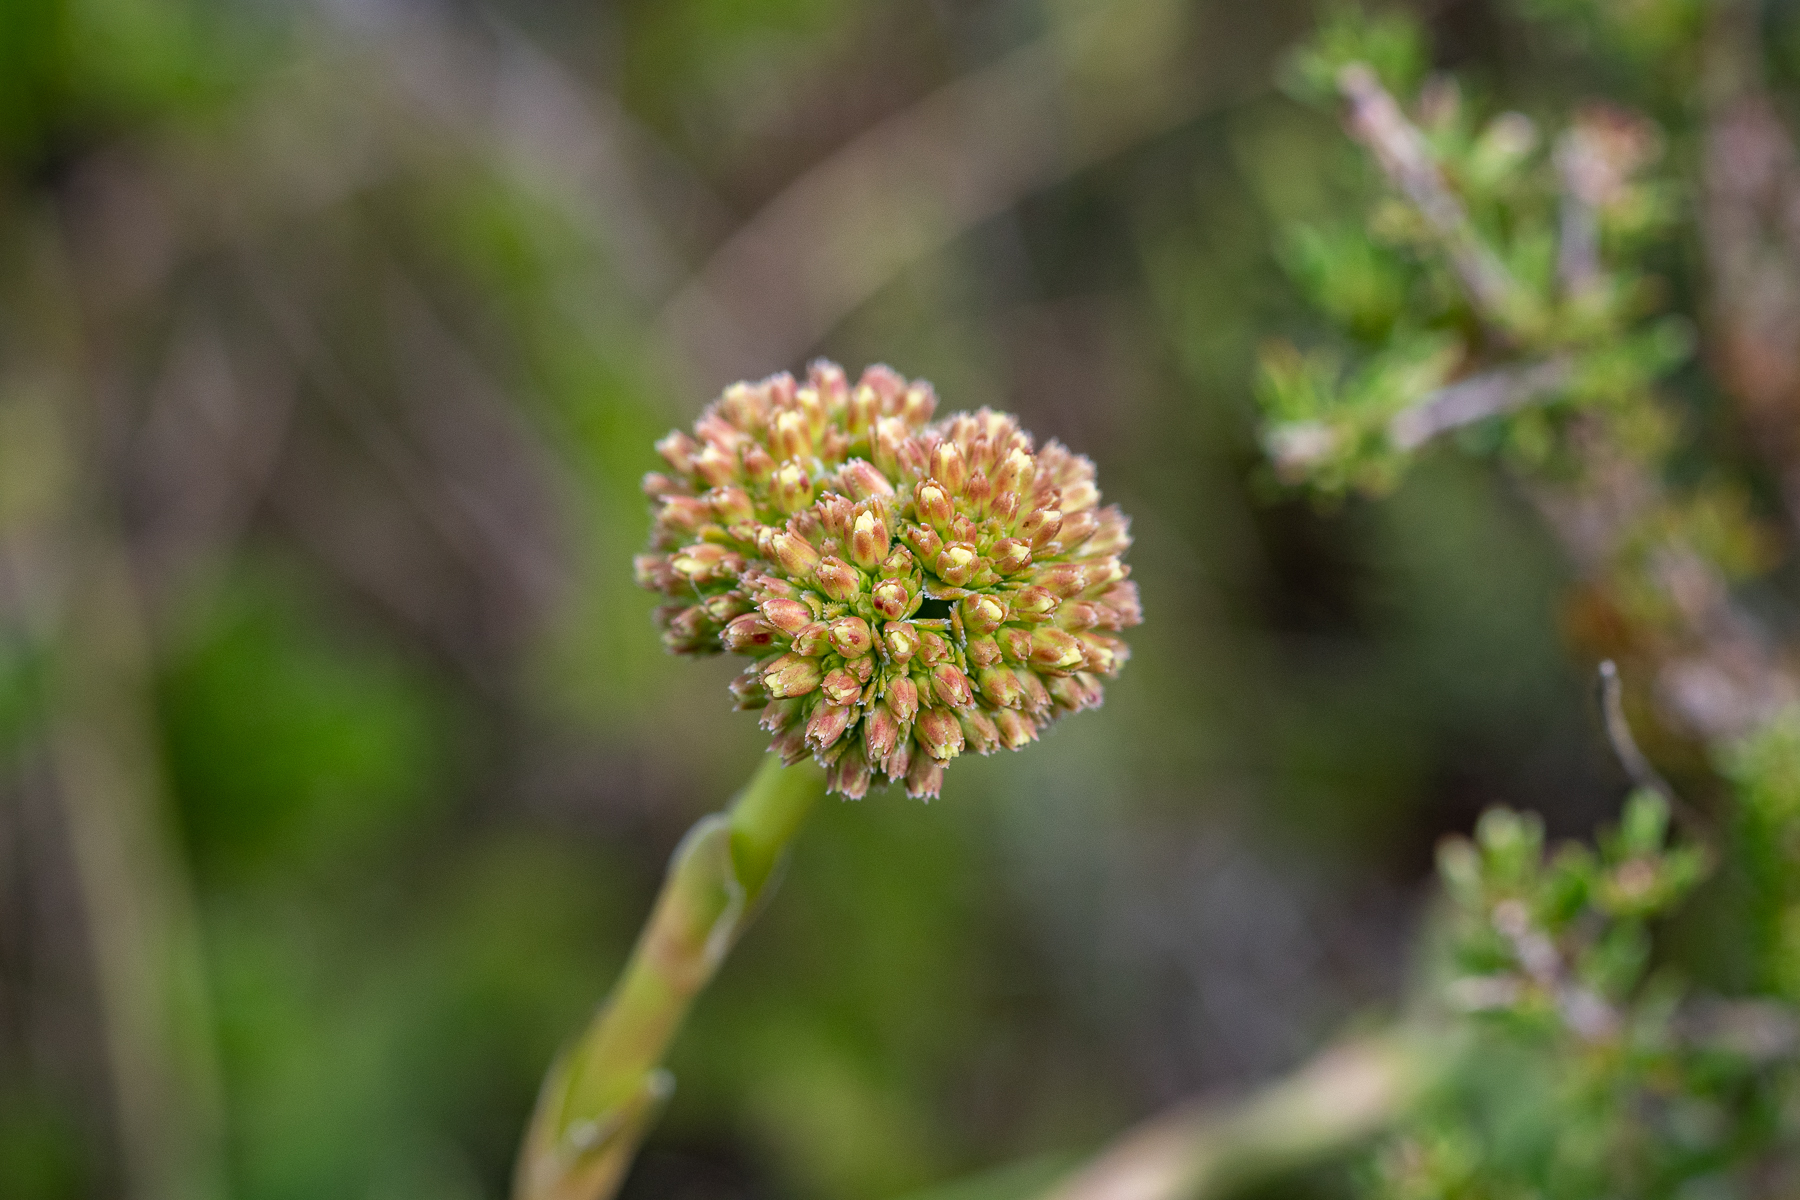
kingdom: Plantae
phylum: Tracheophyta
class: Magnoliopsida
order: Saxifragales
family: Crassulaceae
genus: Crassula
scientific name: Crassula ciliata
